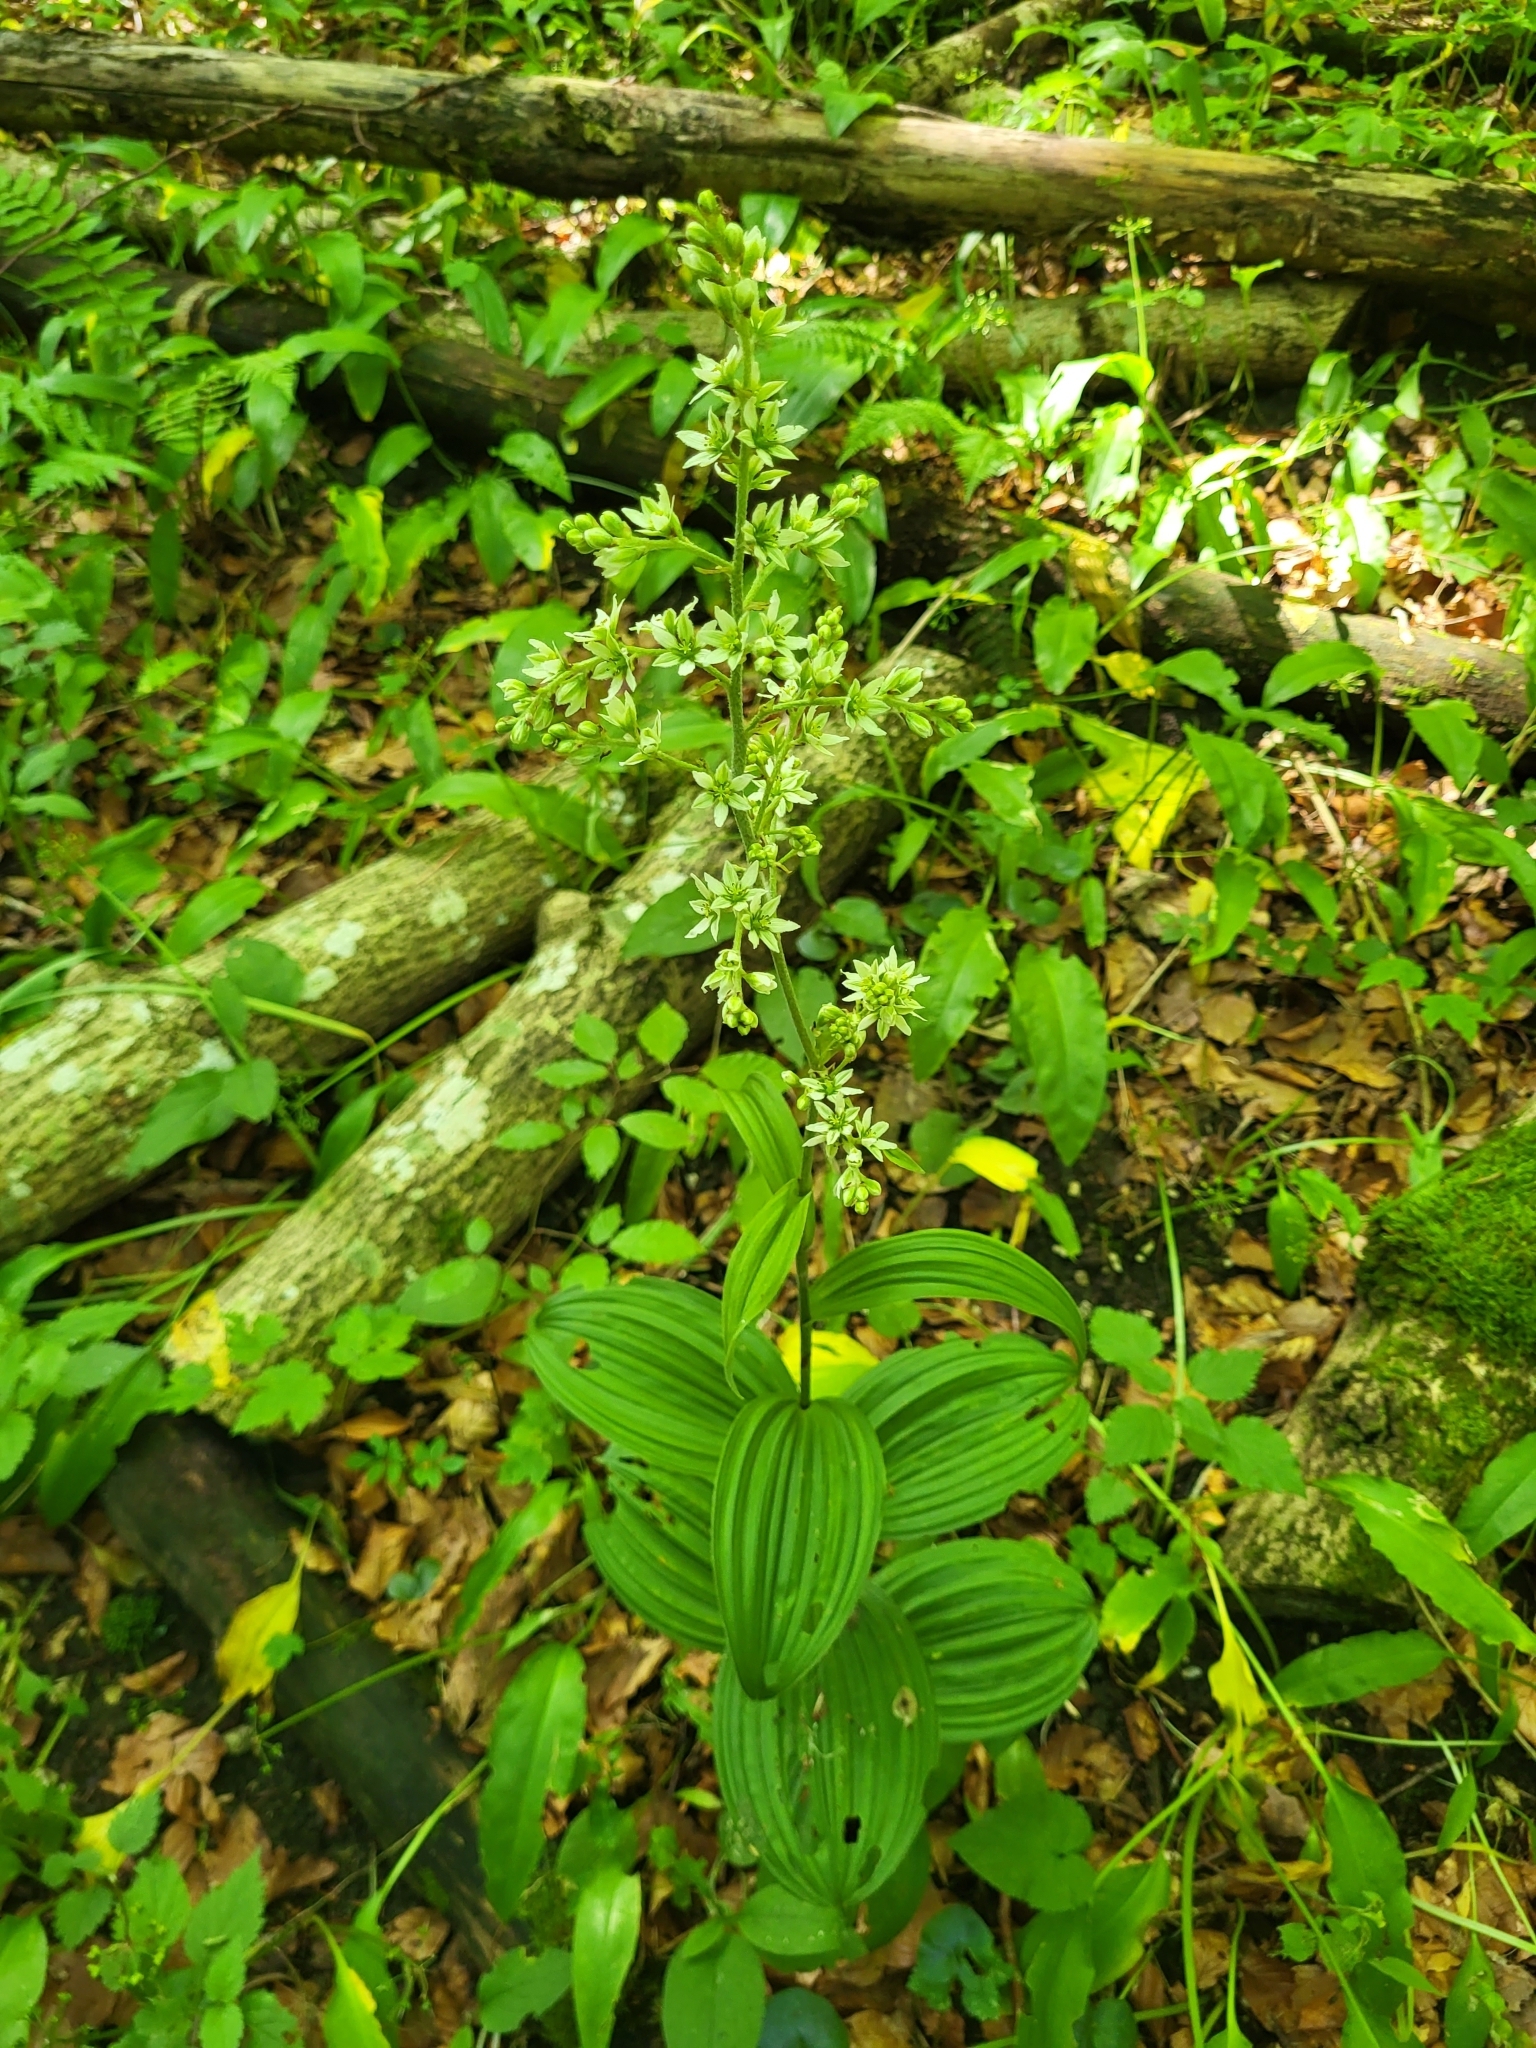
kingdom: Plantae
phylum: Tracheophyta
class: Liliopsida
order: Liliales
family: Melanthiaceae
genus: Veratrum
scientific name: Veratrum album
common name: White veratrum
